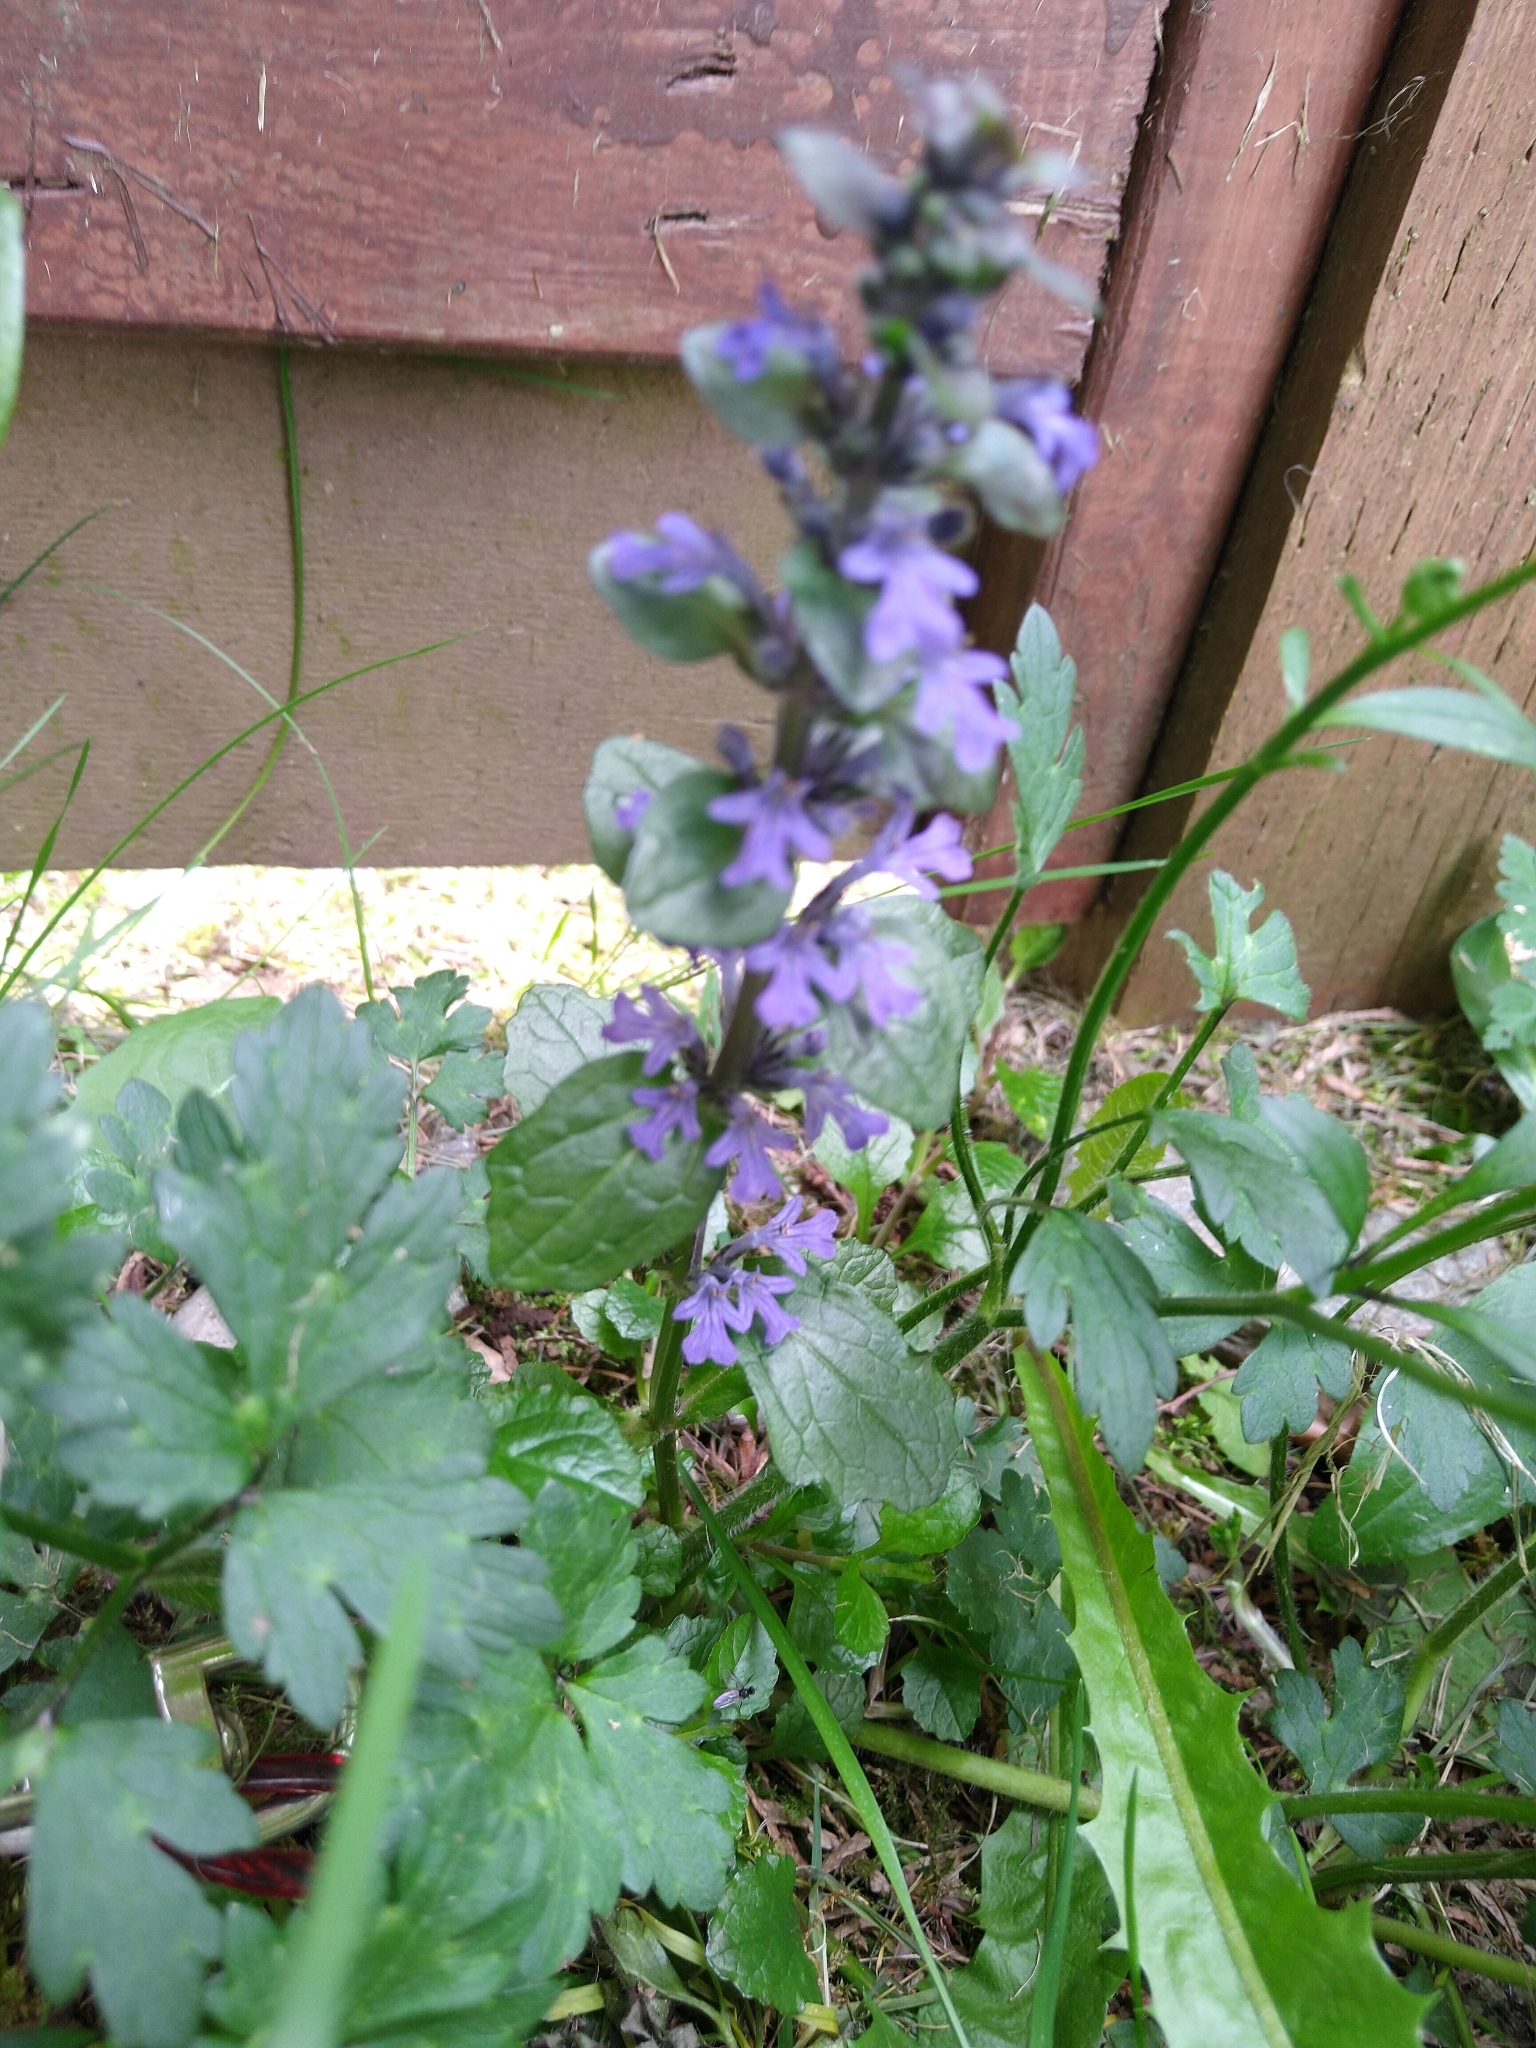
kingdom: Plantae
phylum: Tracheophyta
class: Magnoliopsida
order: Lamiales
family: Lamiaceae
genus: Ajuga
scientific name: Ajuga reptans
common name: Bugle
